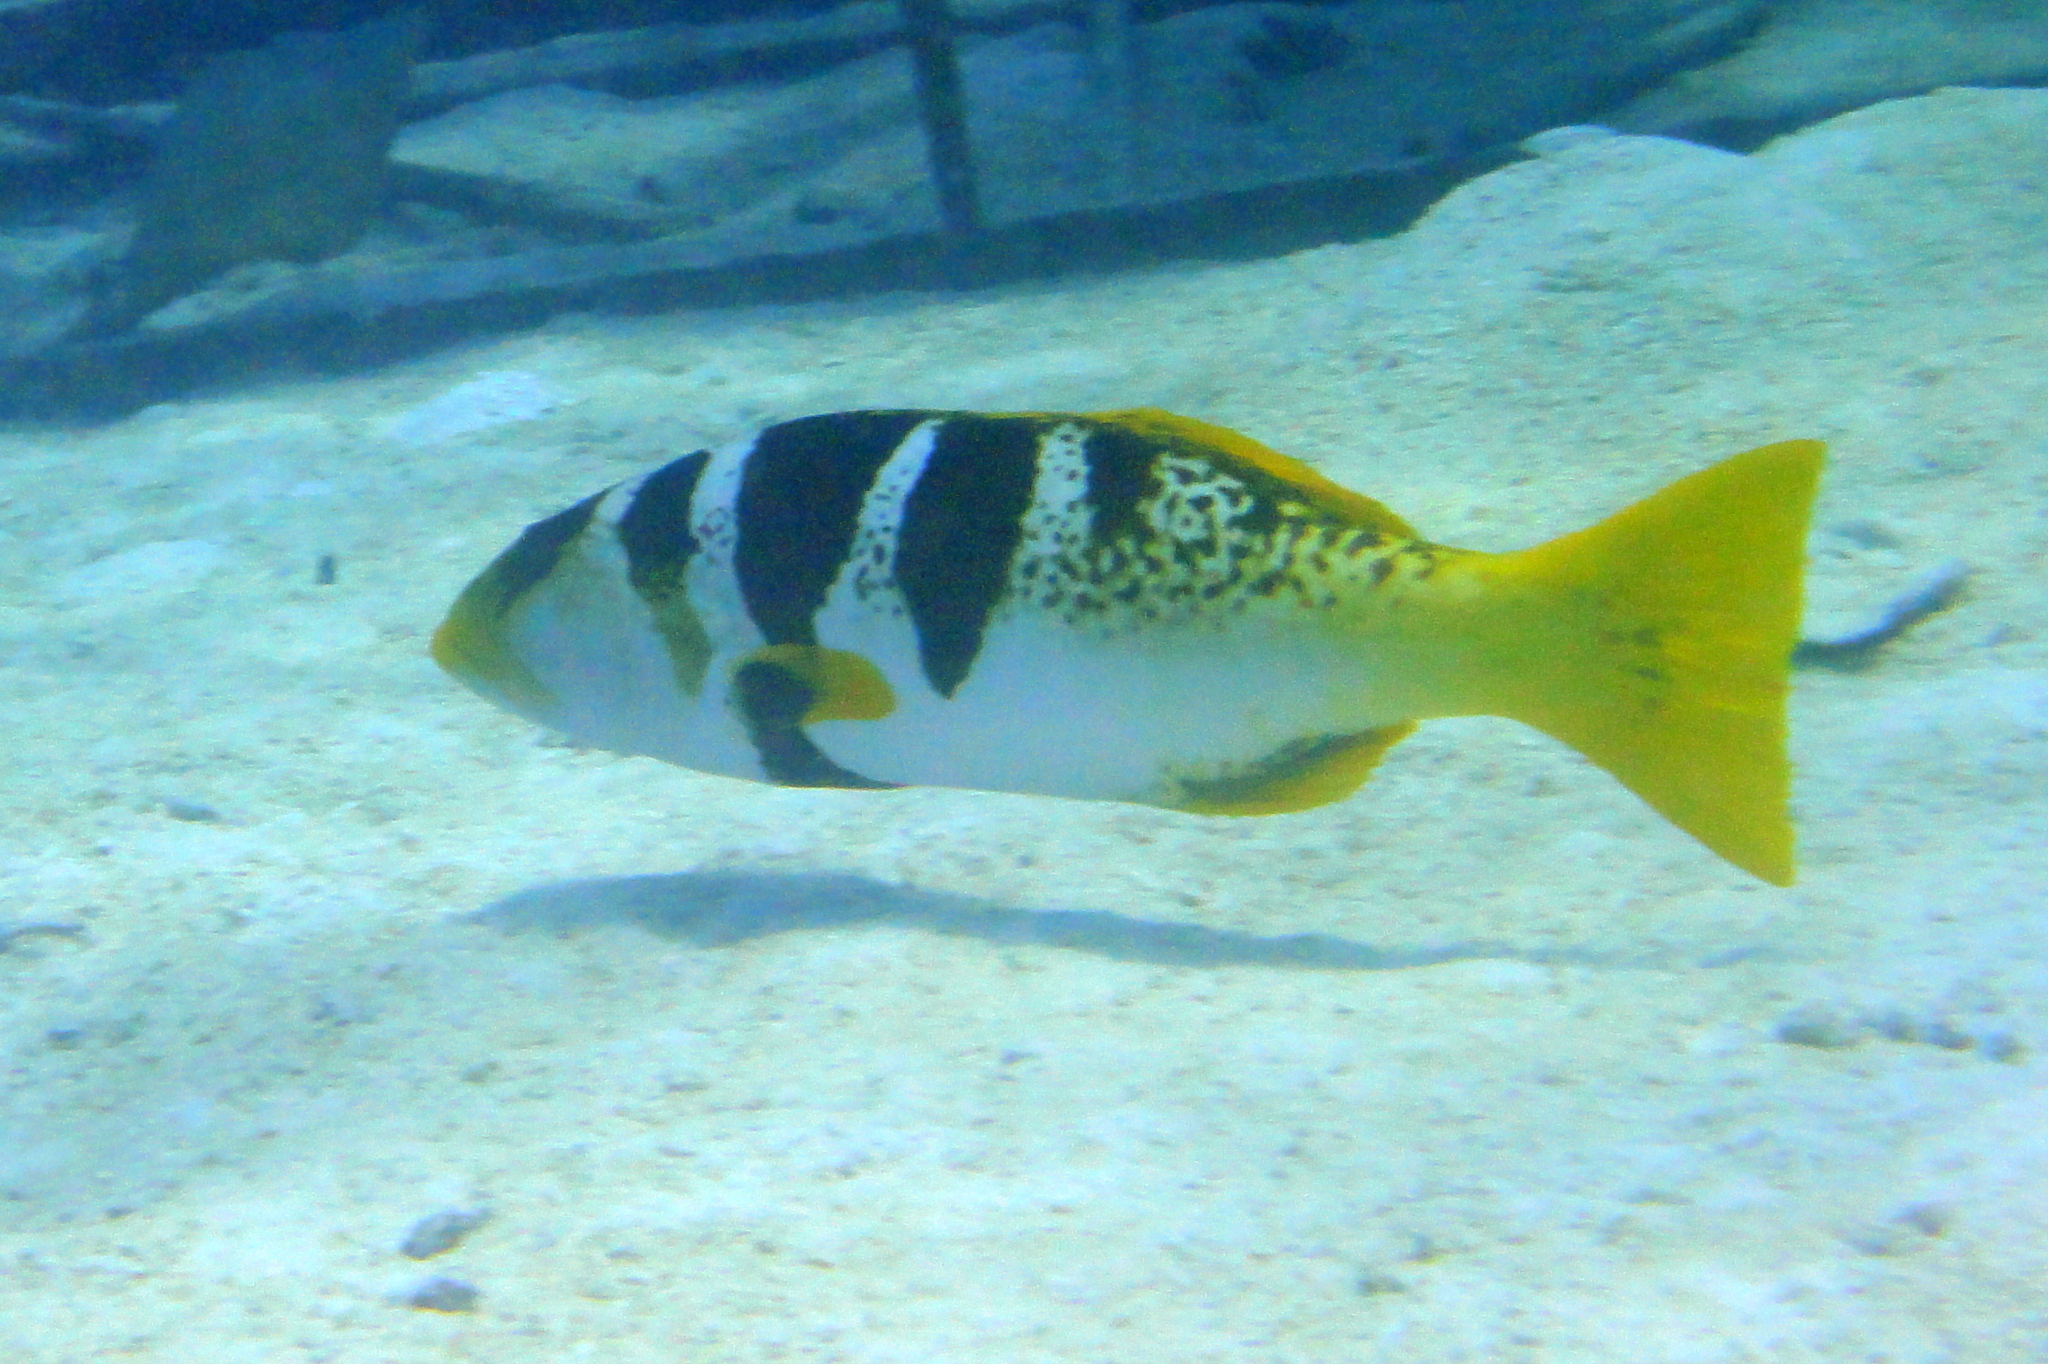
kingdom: Animalia
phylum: Chordata
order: Perciformes
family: Serranidae
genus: Plectropomus
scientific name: Plectropomus laevis
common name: Chinese footballer
